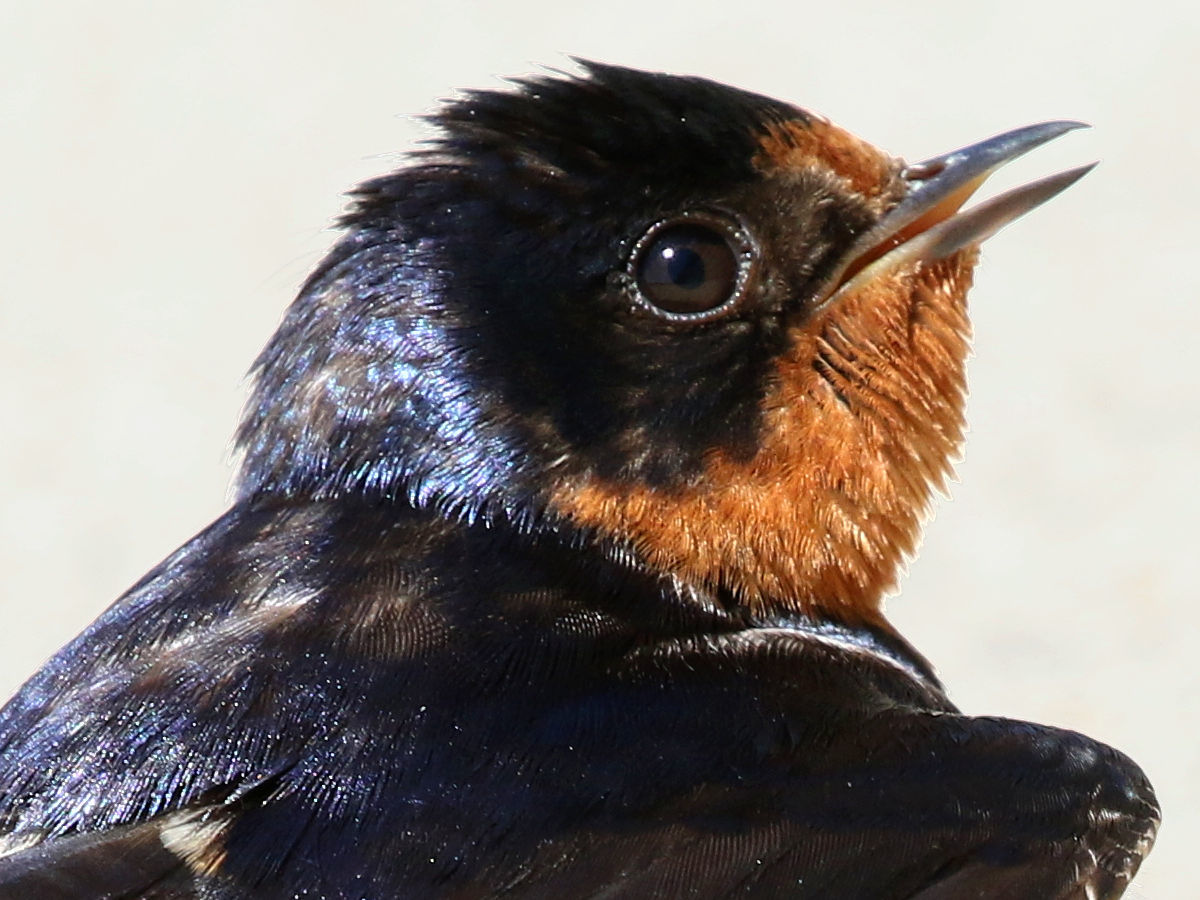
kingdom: Animalia
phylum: Chordata
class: Aves
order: Passeriformes
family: Hirundinidae
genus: Hirundo
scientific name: Hirundo rustica
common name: Barn swallow
